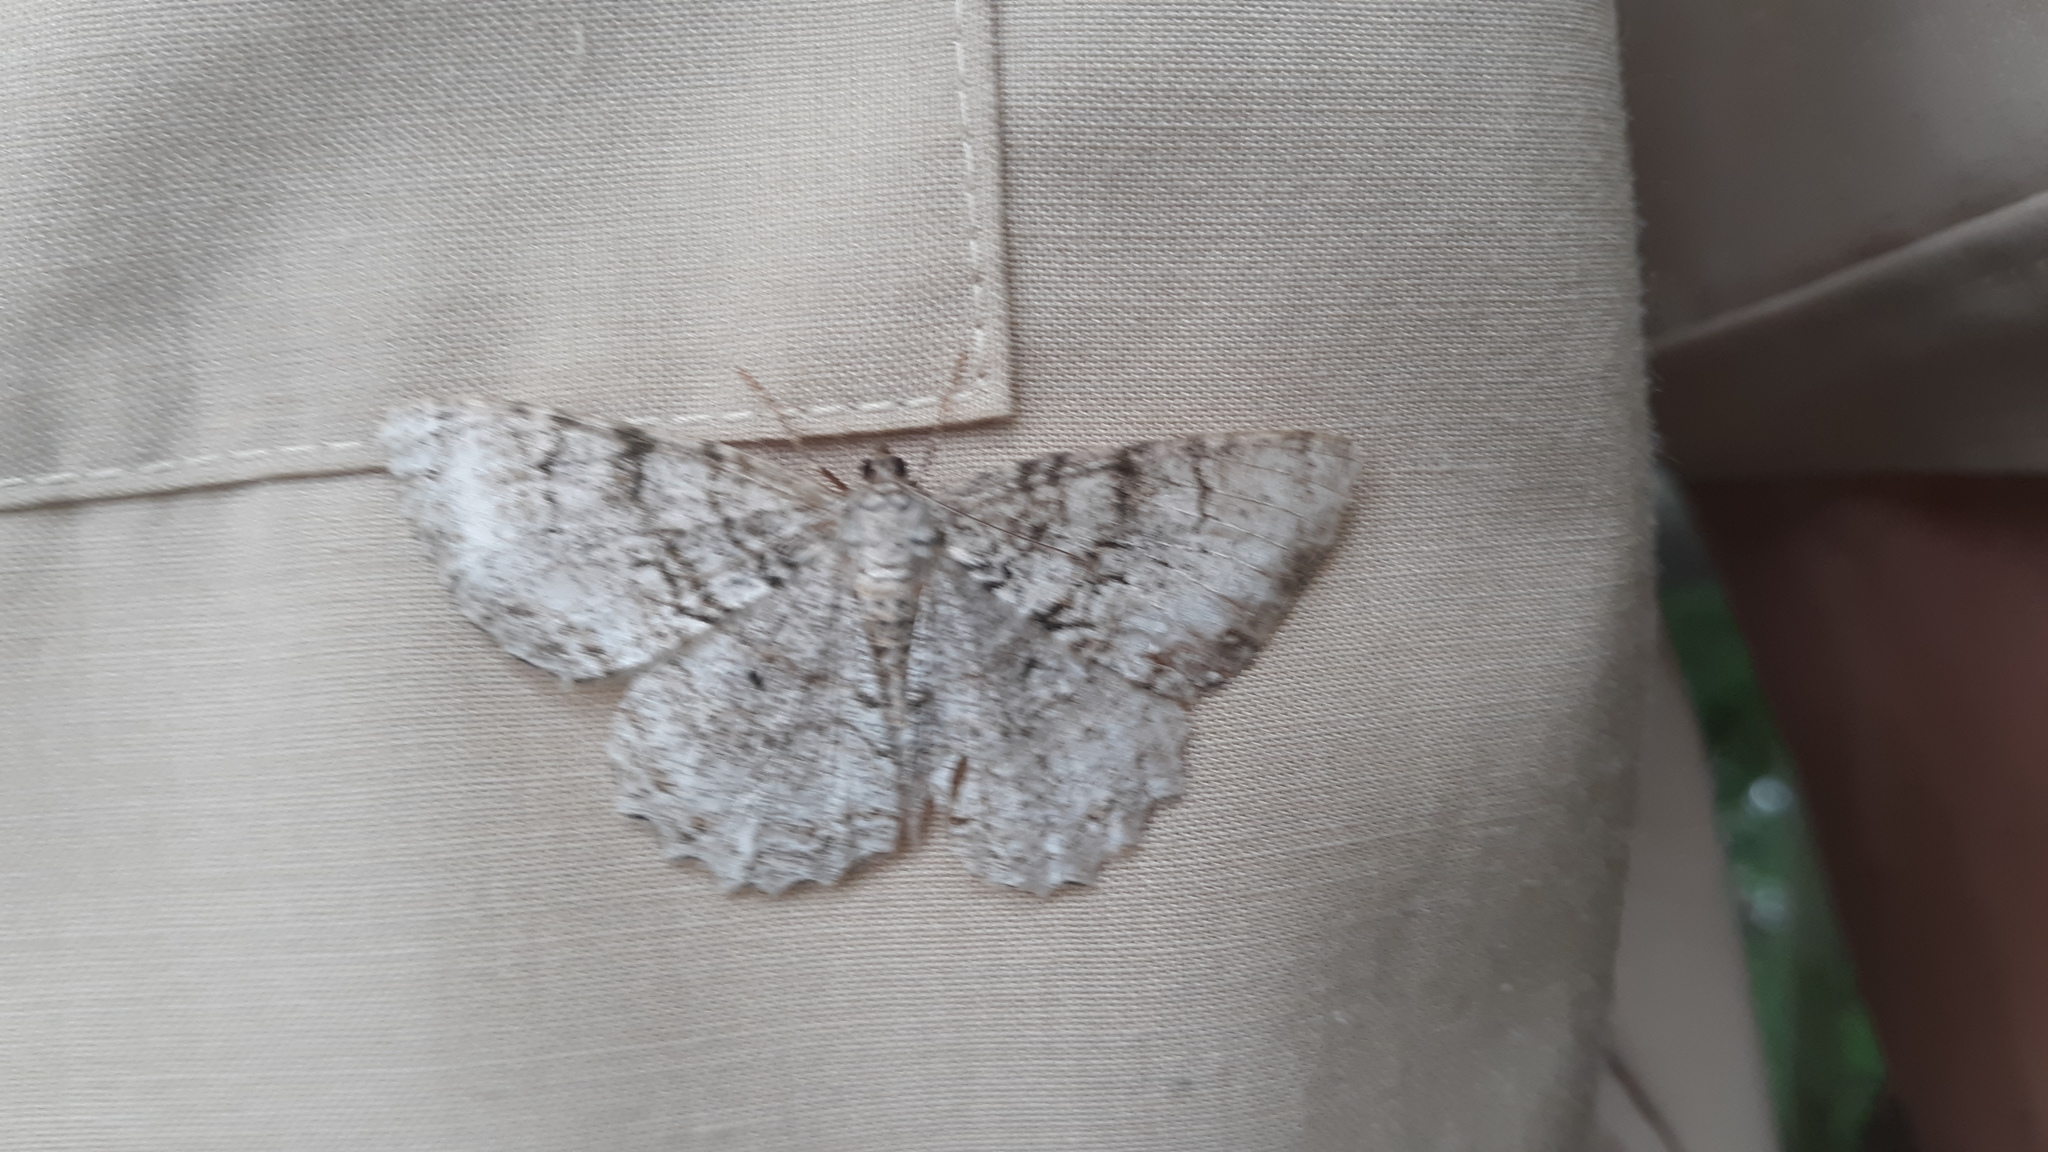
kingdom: Animalia
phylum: Arthropoda
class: Insecta
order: Lepidoptera
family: Geometridae
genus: Epimecis
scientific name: Epimecis hortaria
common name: Tulip-tree beauty
